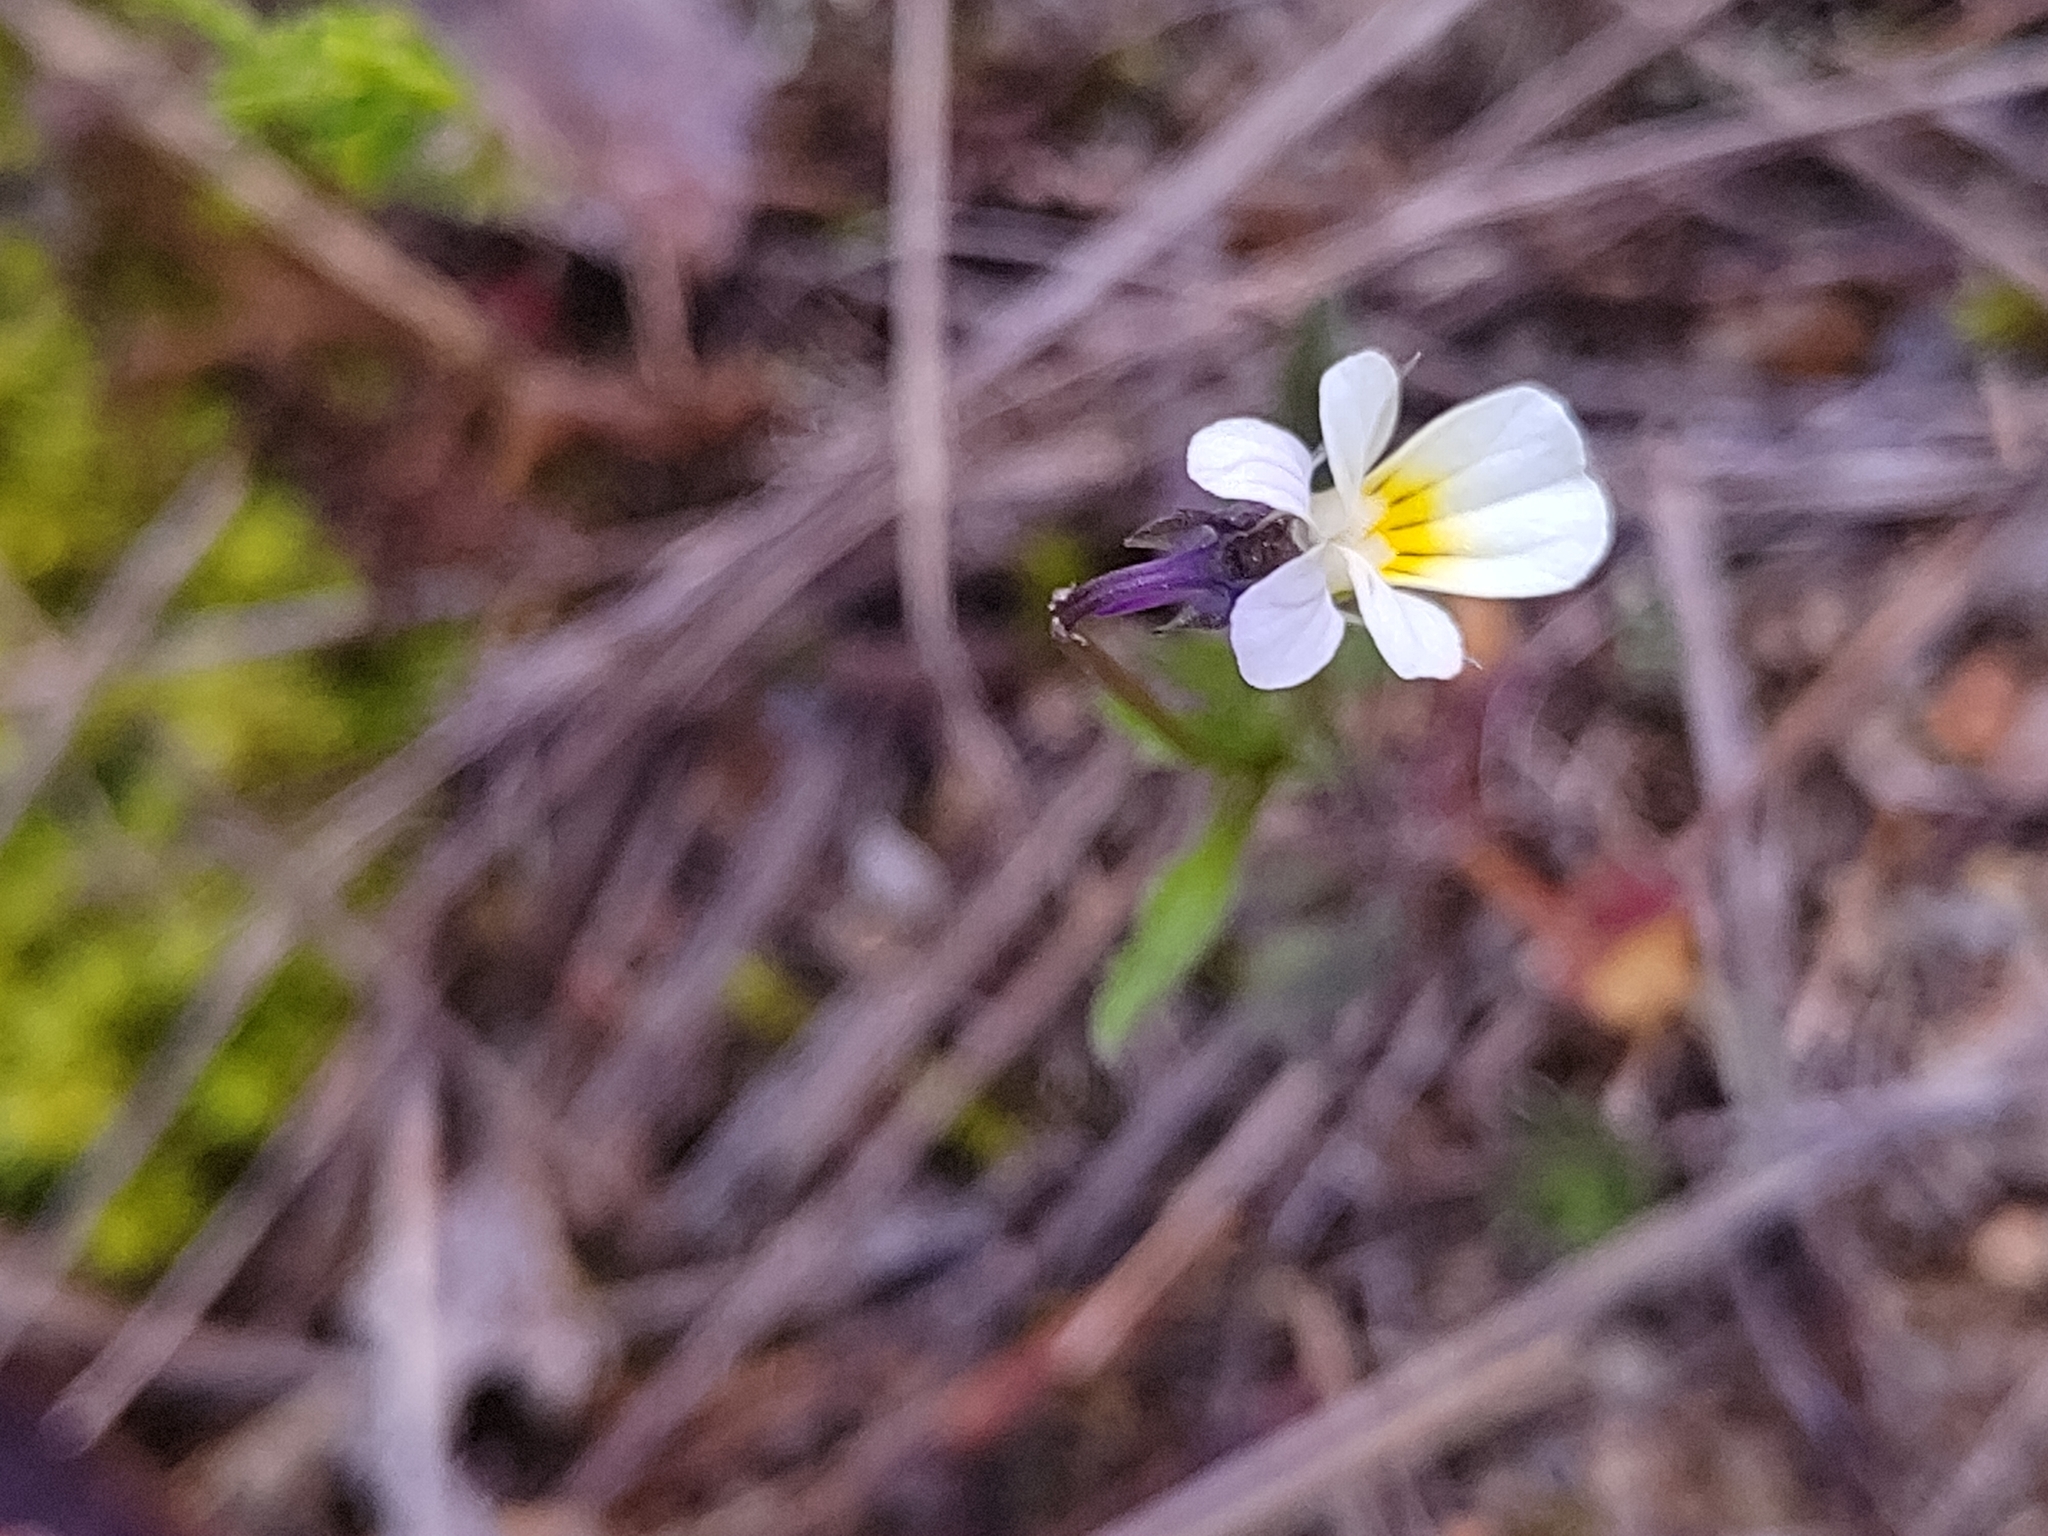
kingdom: Plantae
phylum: Tracheophyta
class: Magnoliopsida
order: Malpighiales
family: Violaceae
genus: Viola
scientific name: Viola arvensis
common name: Field pansy
